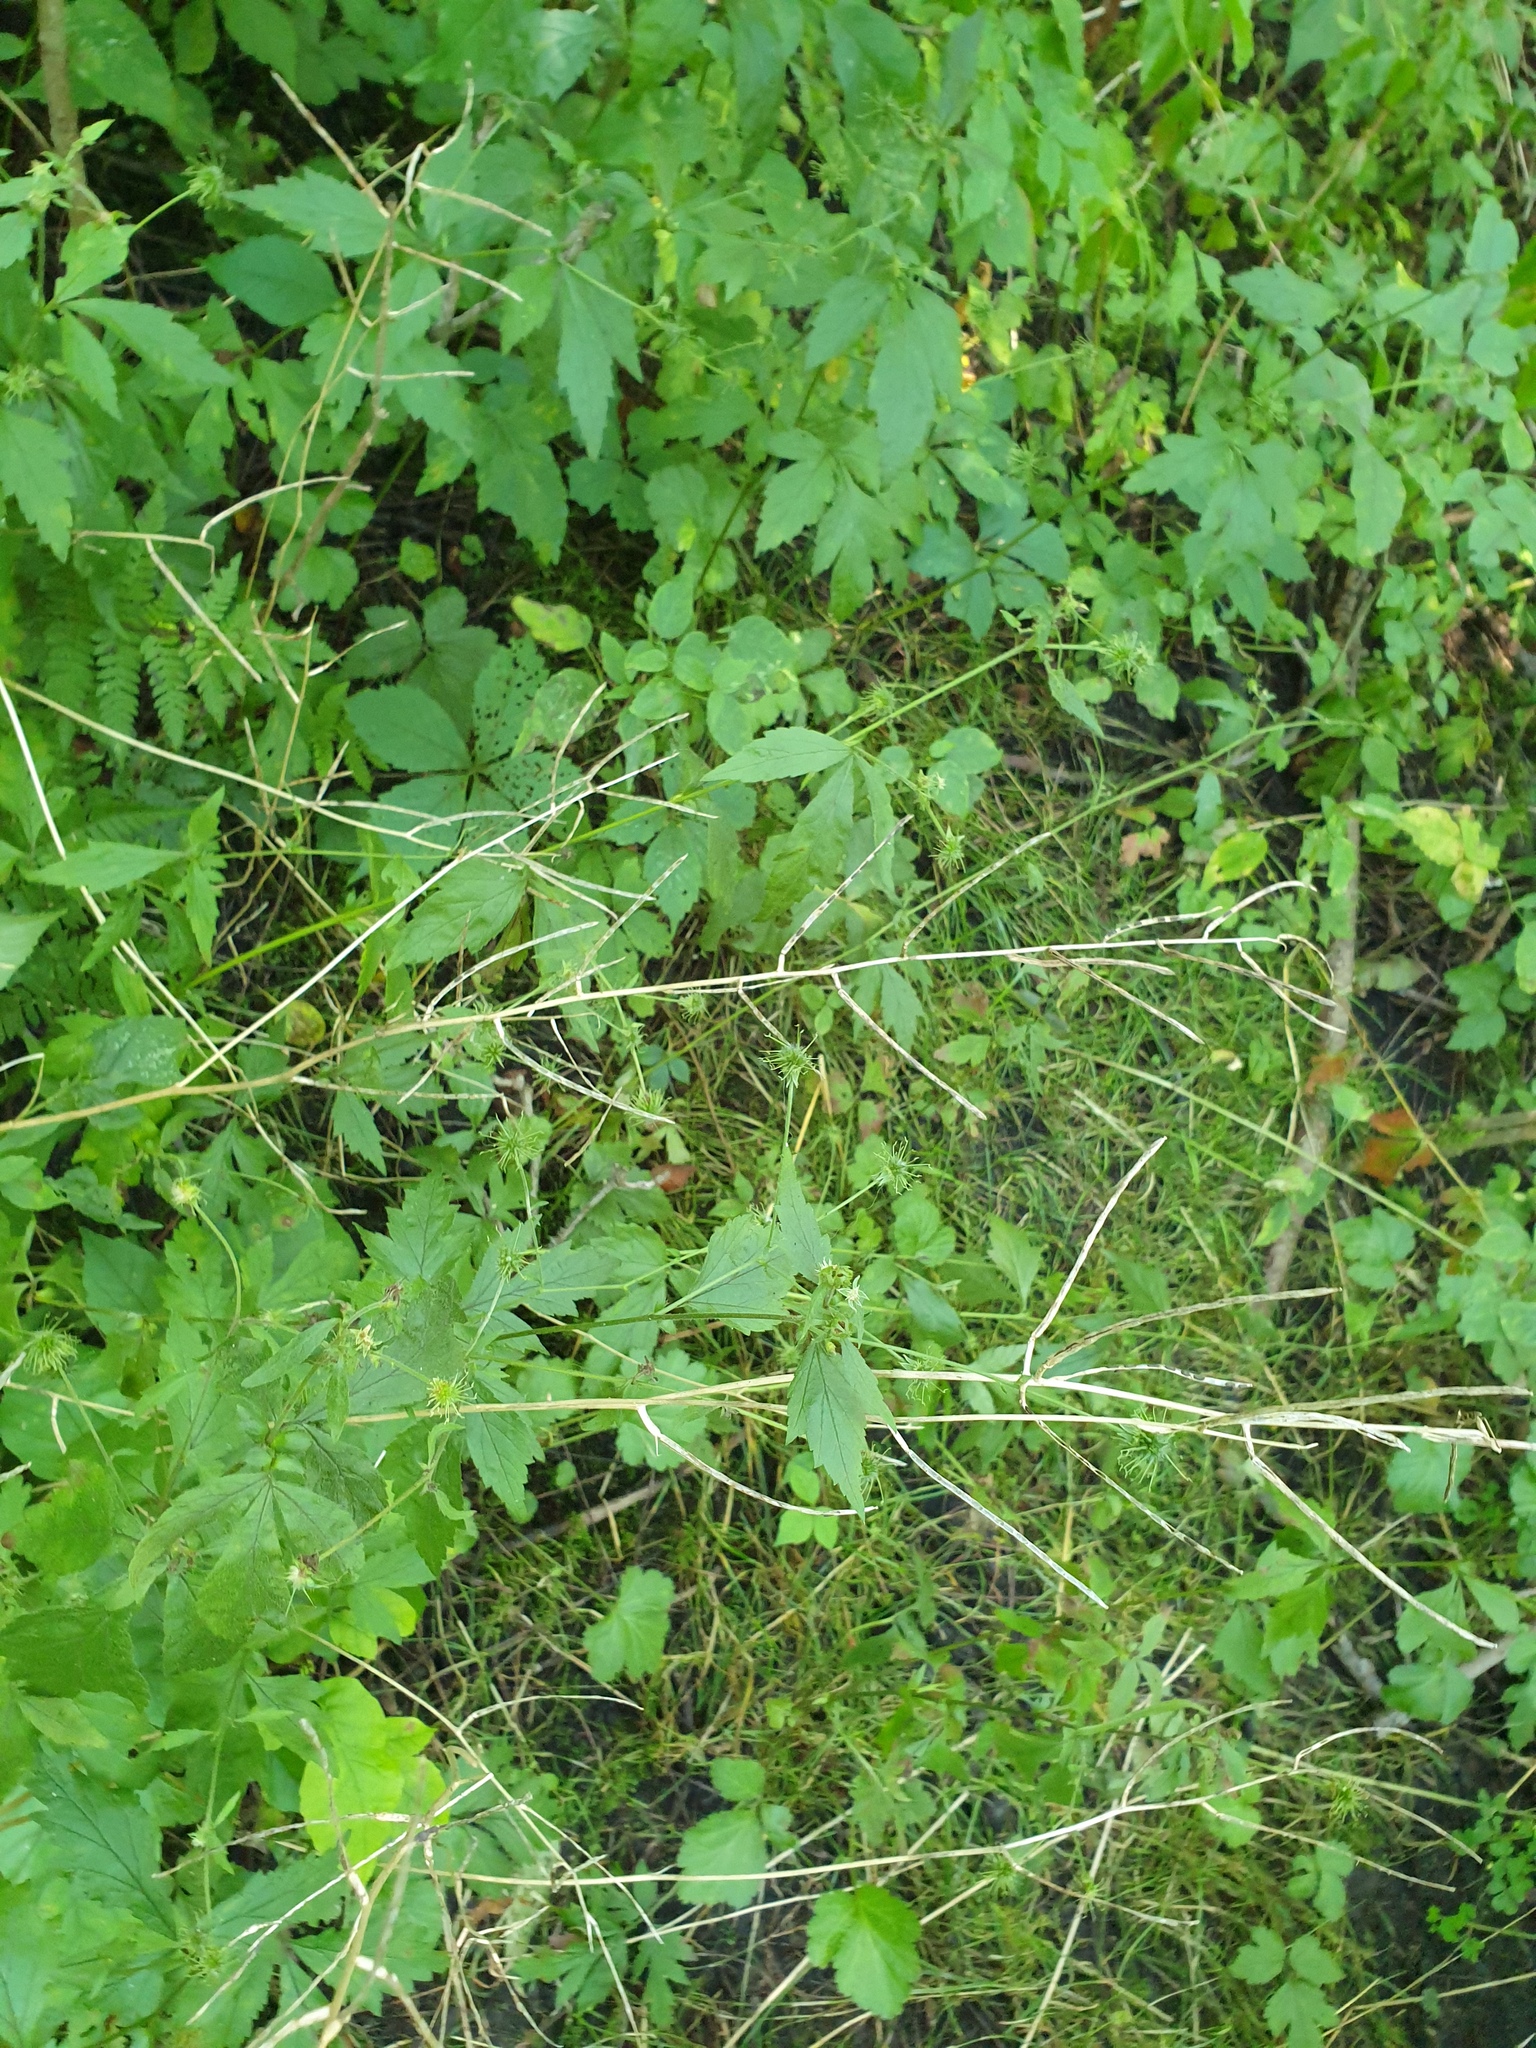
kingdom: Plantae
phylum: Tracheophyta
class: Magnoliopsida
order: Brassicales
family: Brassicaceae
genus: Alliaria
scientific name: Alliaria petiolata
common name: Garlic mustard
